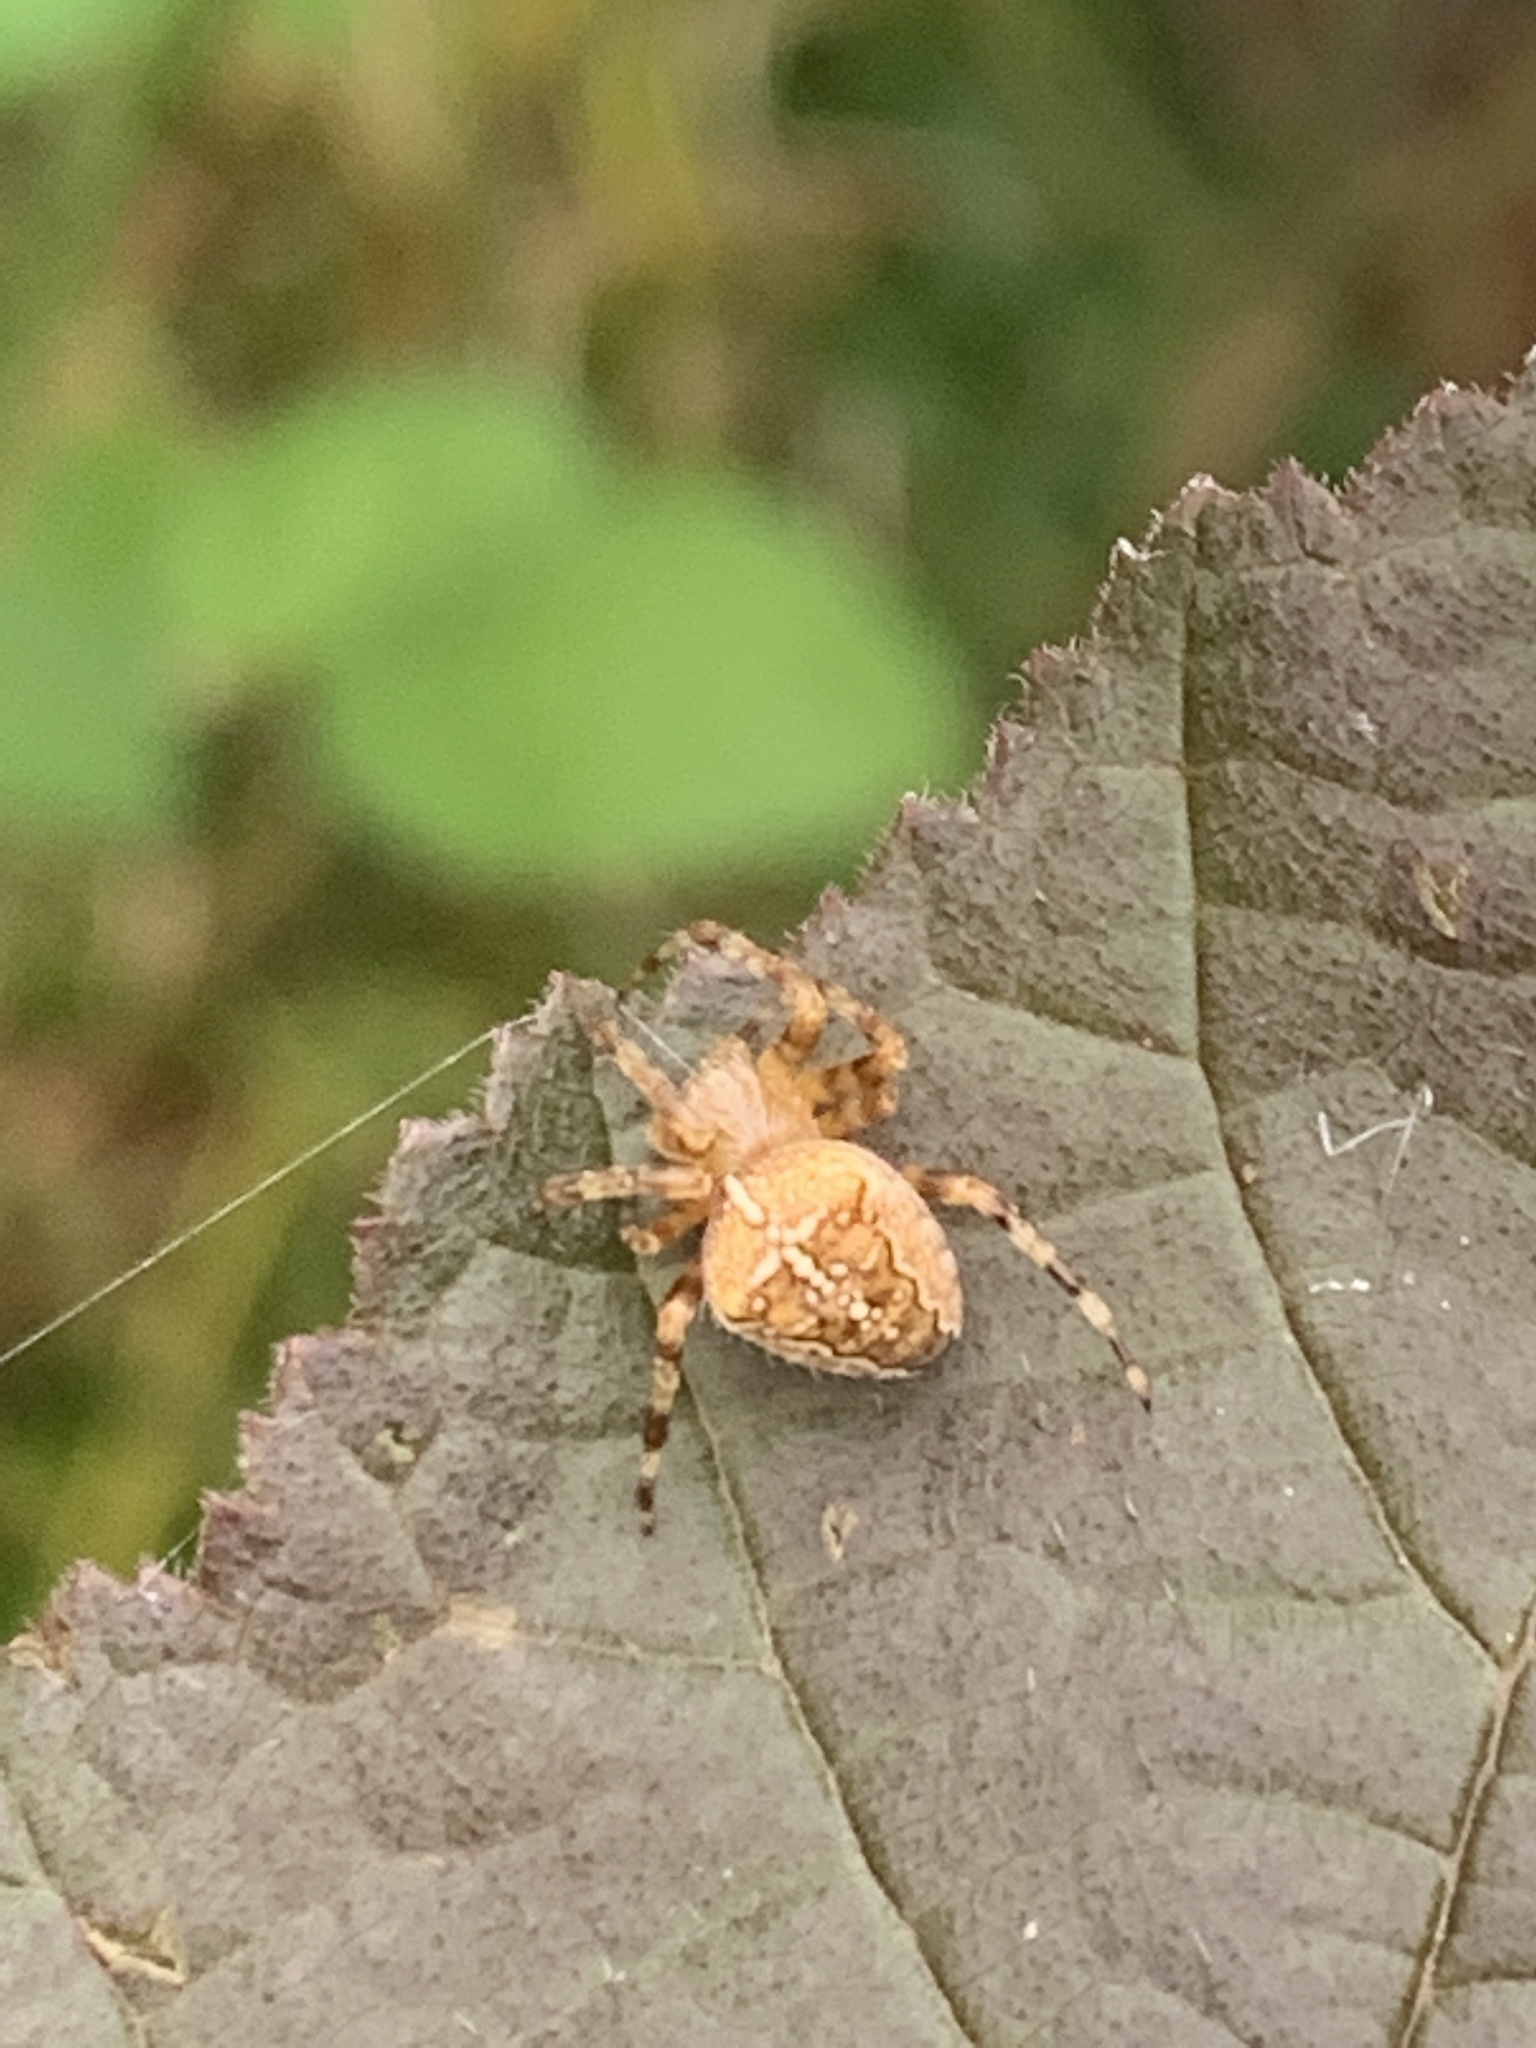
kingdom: Animalia
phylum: Arthropoda
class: Arachnida
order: Araneae
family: Araneidae
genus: Araneus
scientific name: Araneus diadematus
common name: Cross orbweaver
